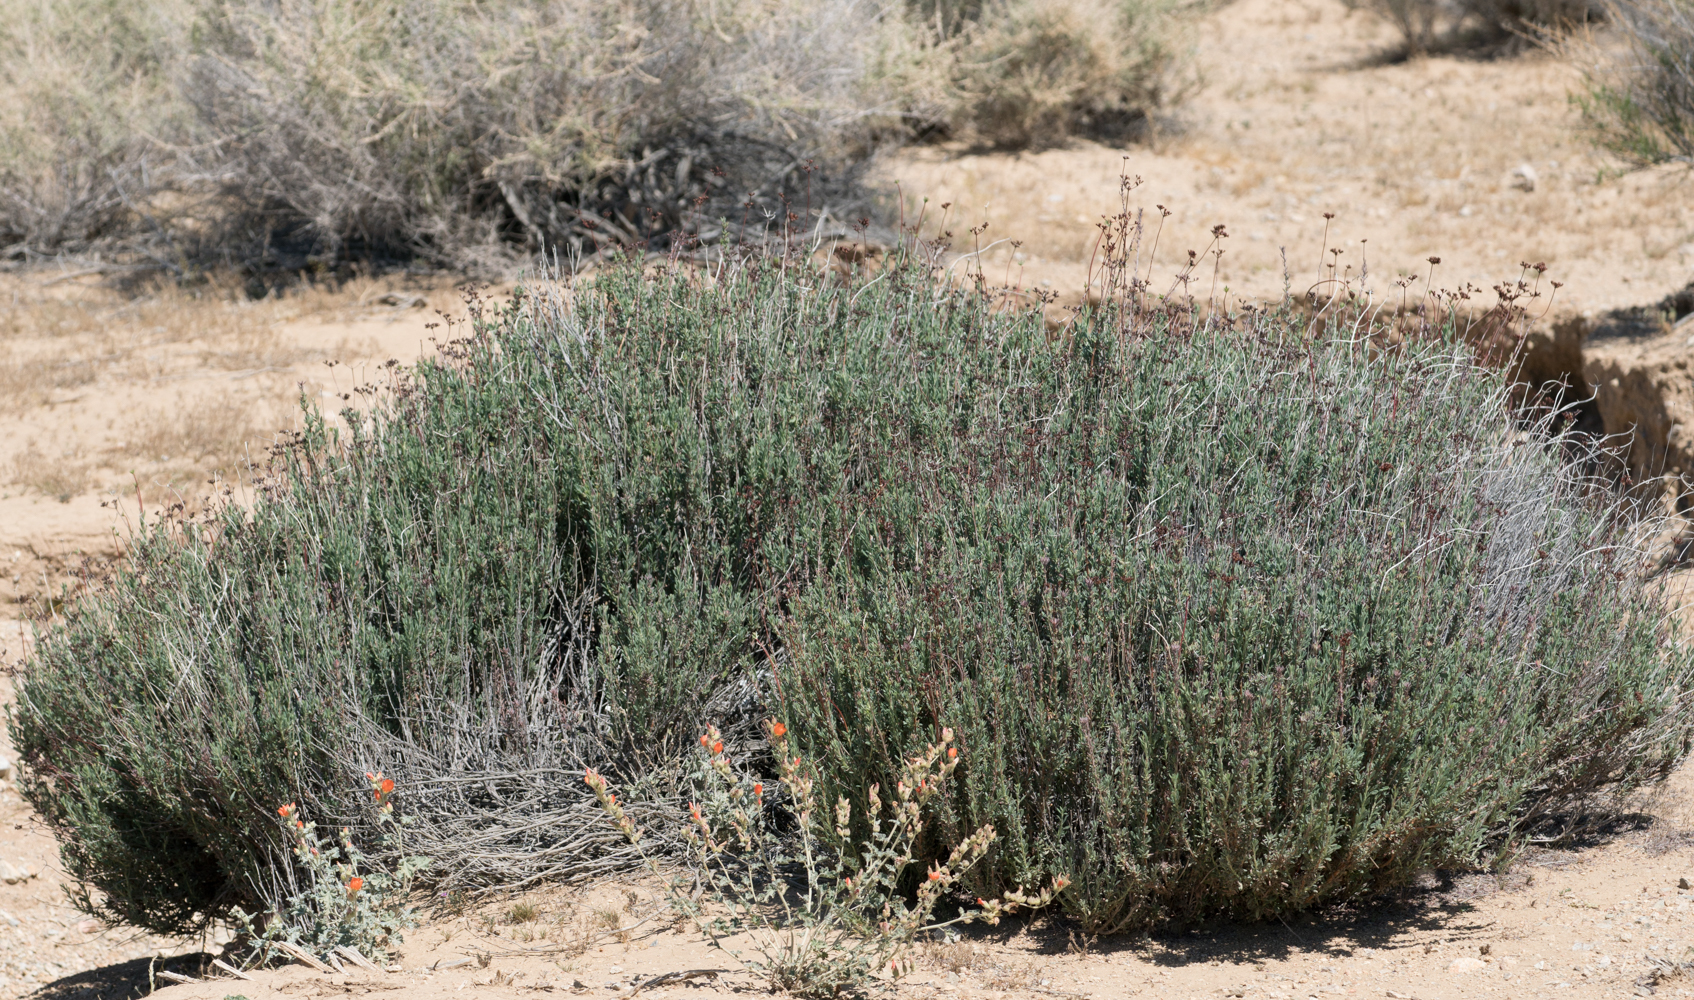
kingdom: Plantae
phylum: Tracheophyta
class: Magnoliopsida
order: Caryophyllales
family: Polygonaceae
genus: Eriogonum
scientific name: Eriogonum fasciculatum
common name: California wild buckwheat
